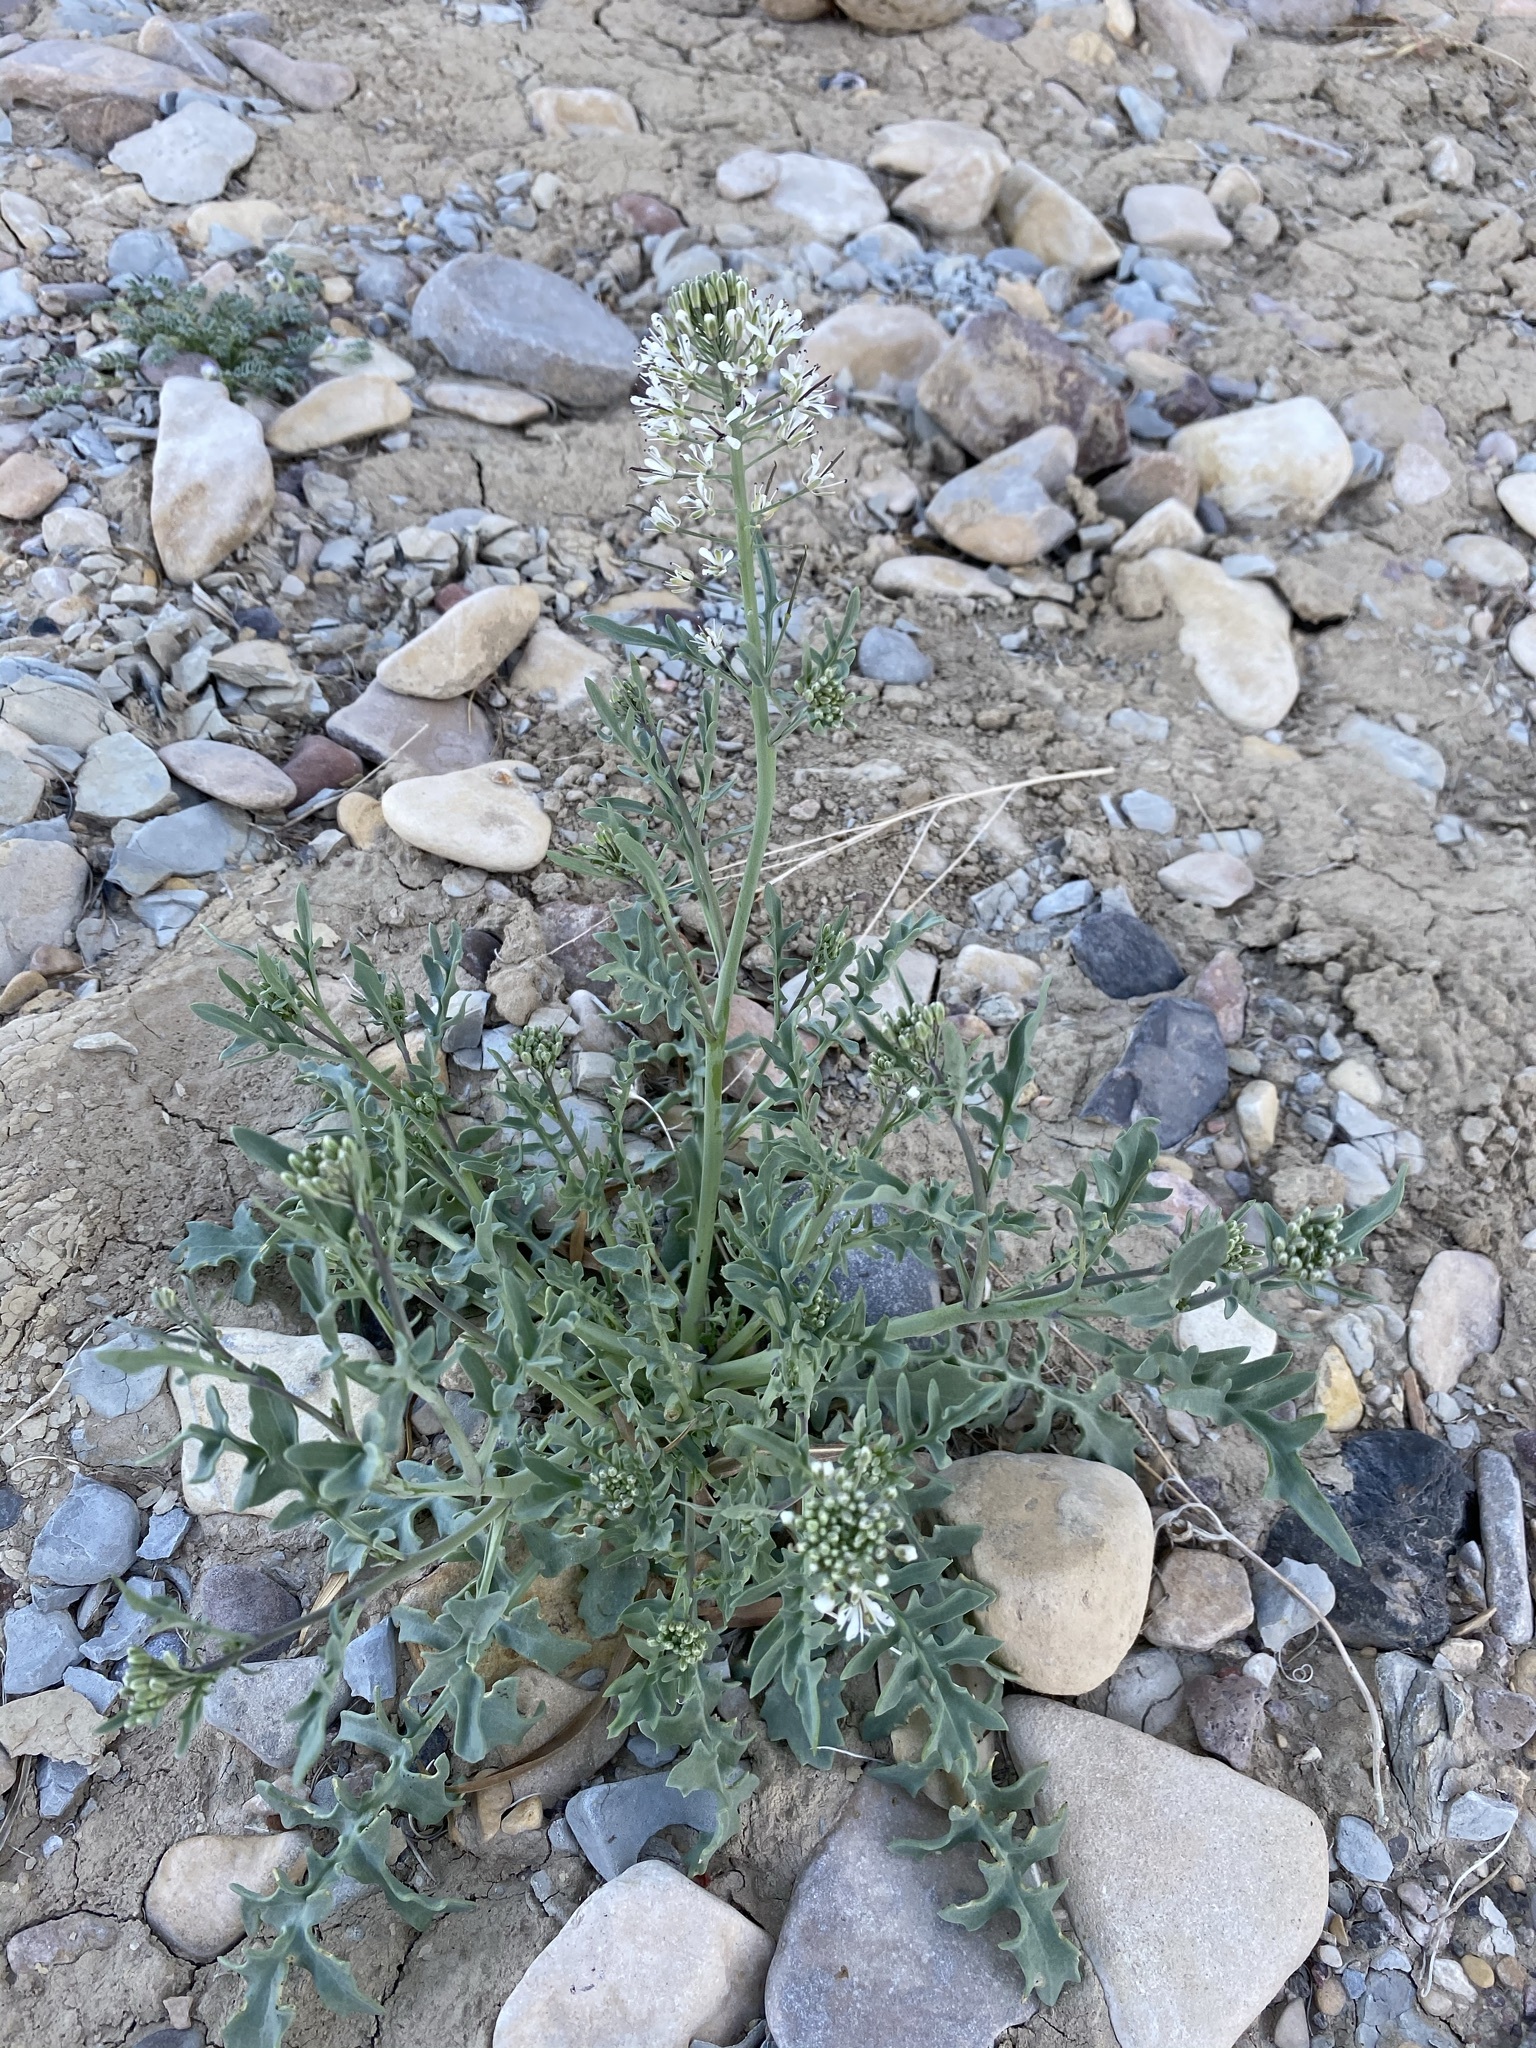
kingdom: Plantae
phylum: Tracheophyta
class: Magnoliopsida
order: Brassicales
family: Brassicaceae
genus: Thelypodium
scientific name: Thelypodium texanum
